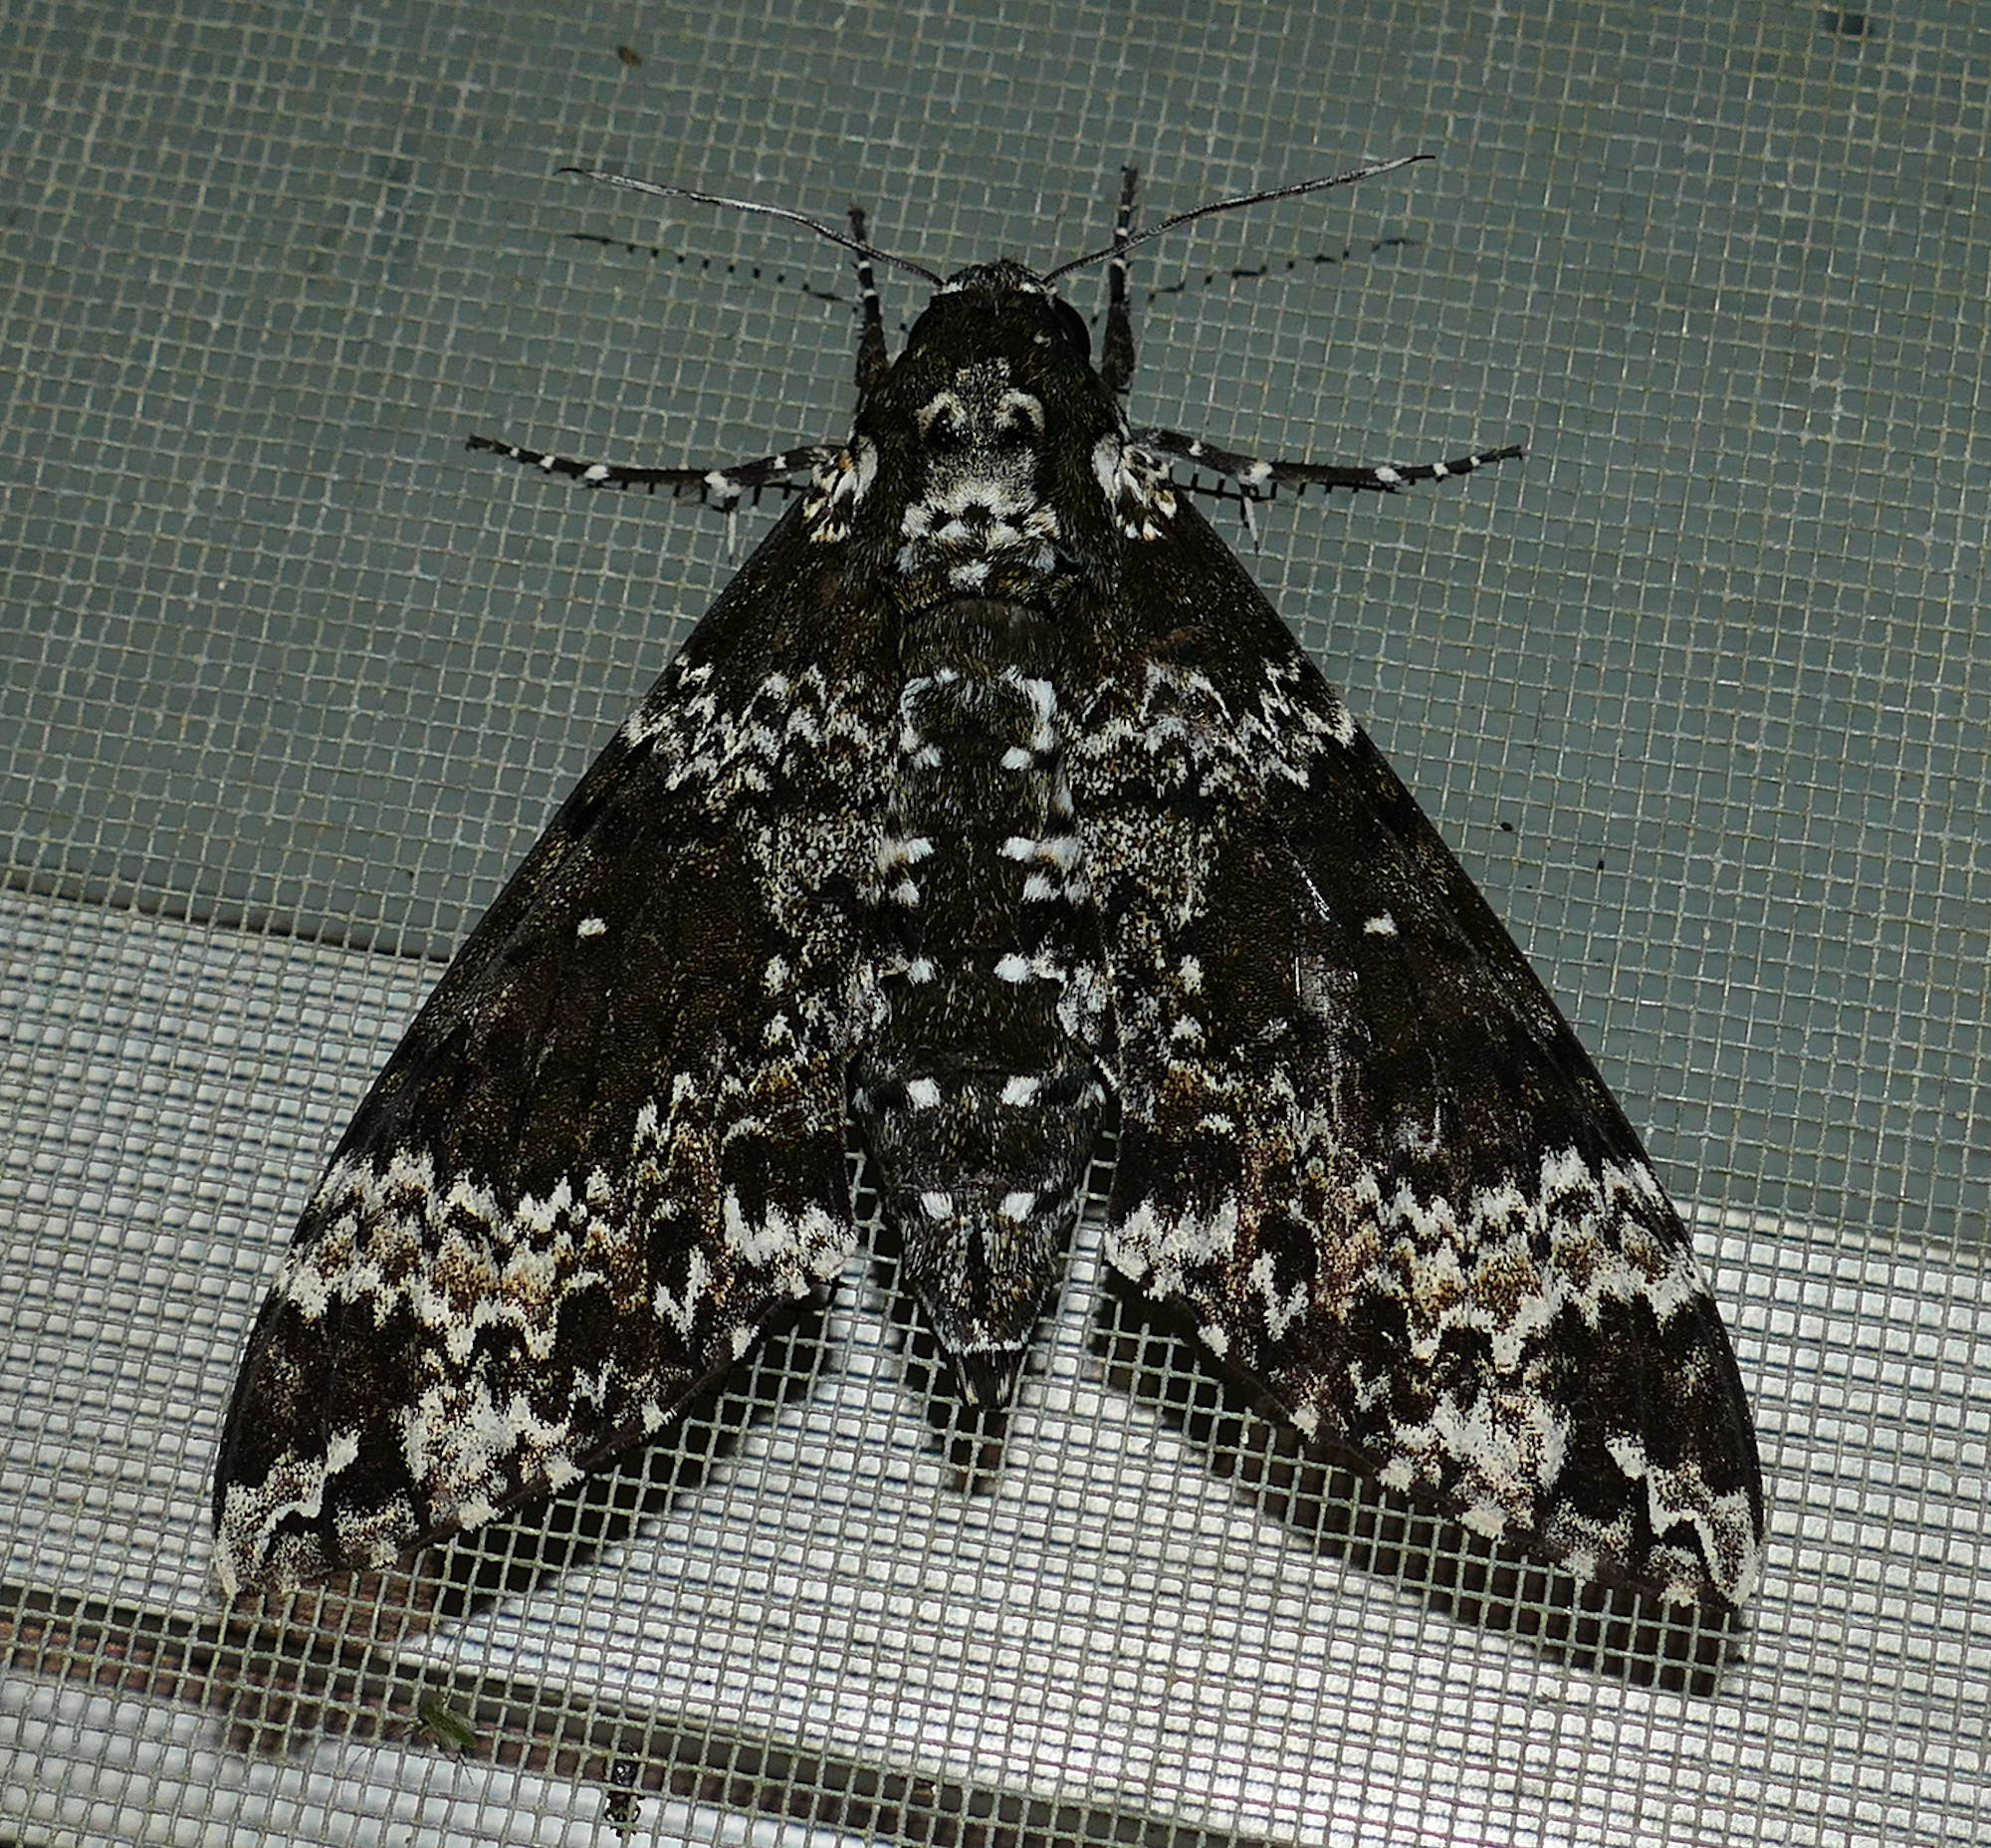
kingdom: Animalia
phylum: Arthropoda
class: Insecta
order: Lepidoptera
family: Sphingidae
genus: Manduca
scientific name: Manduca rustica
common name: Rustic sphinx
